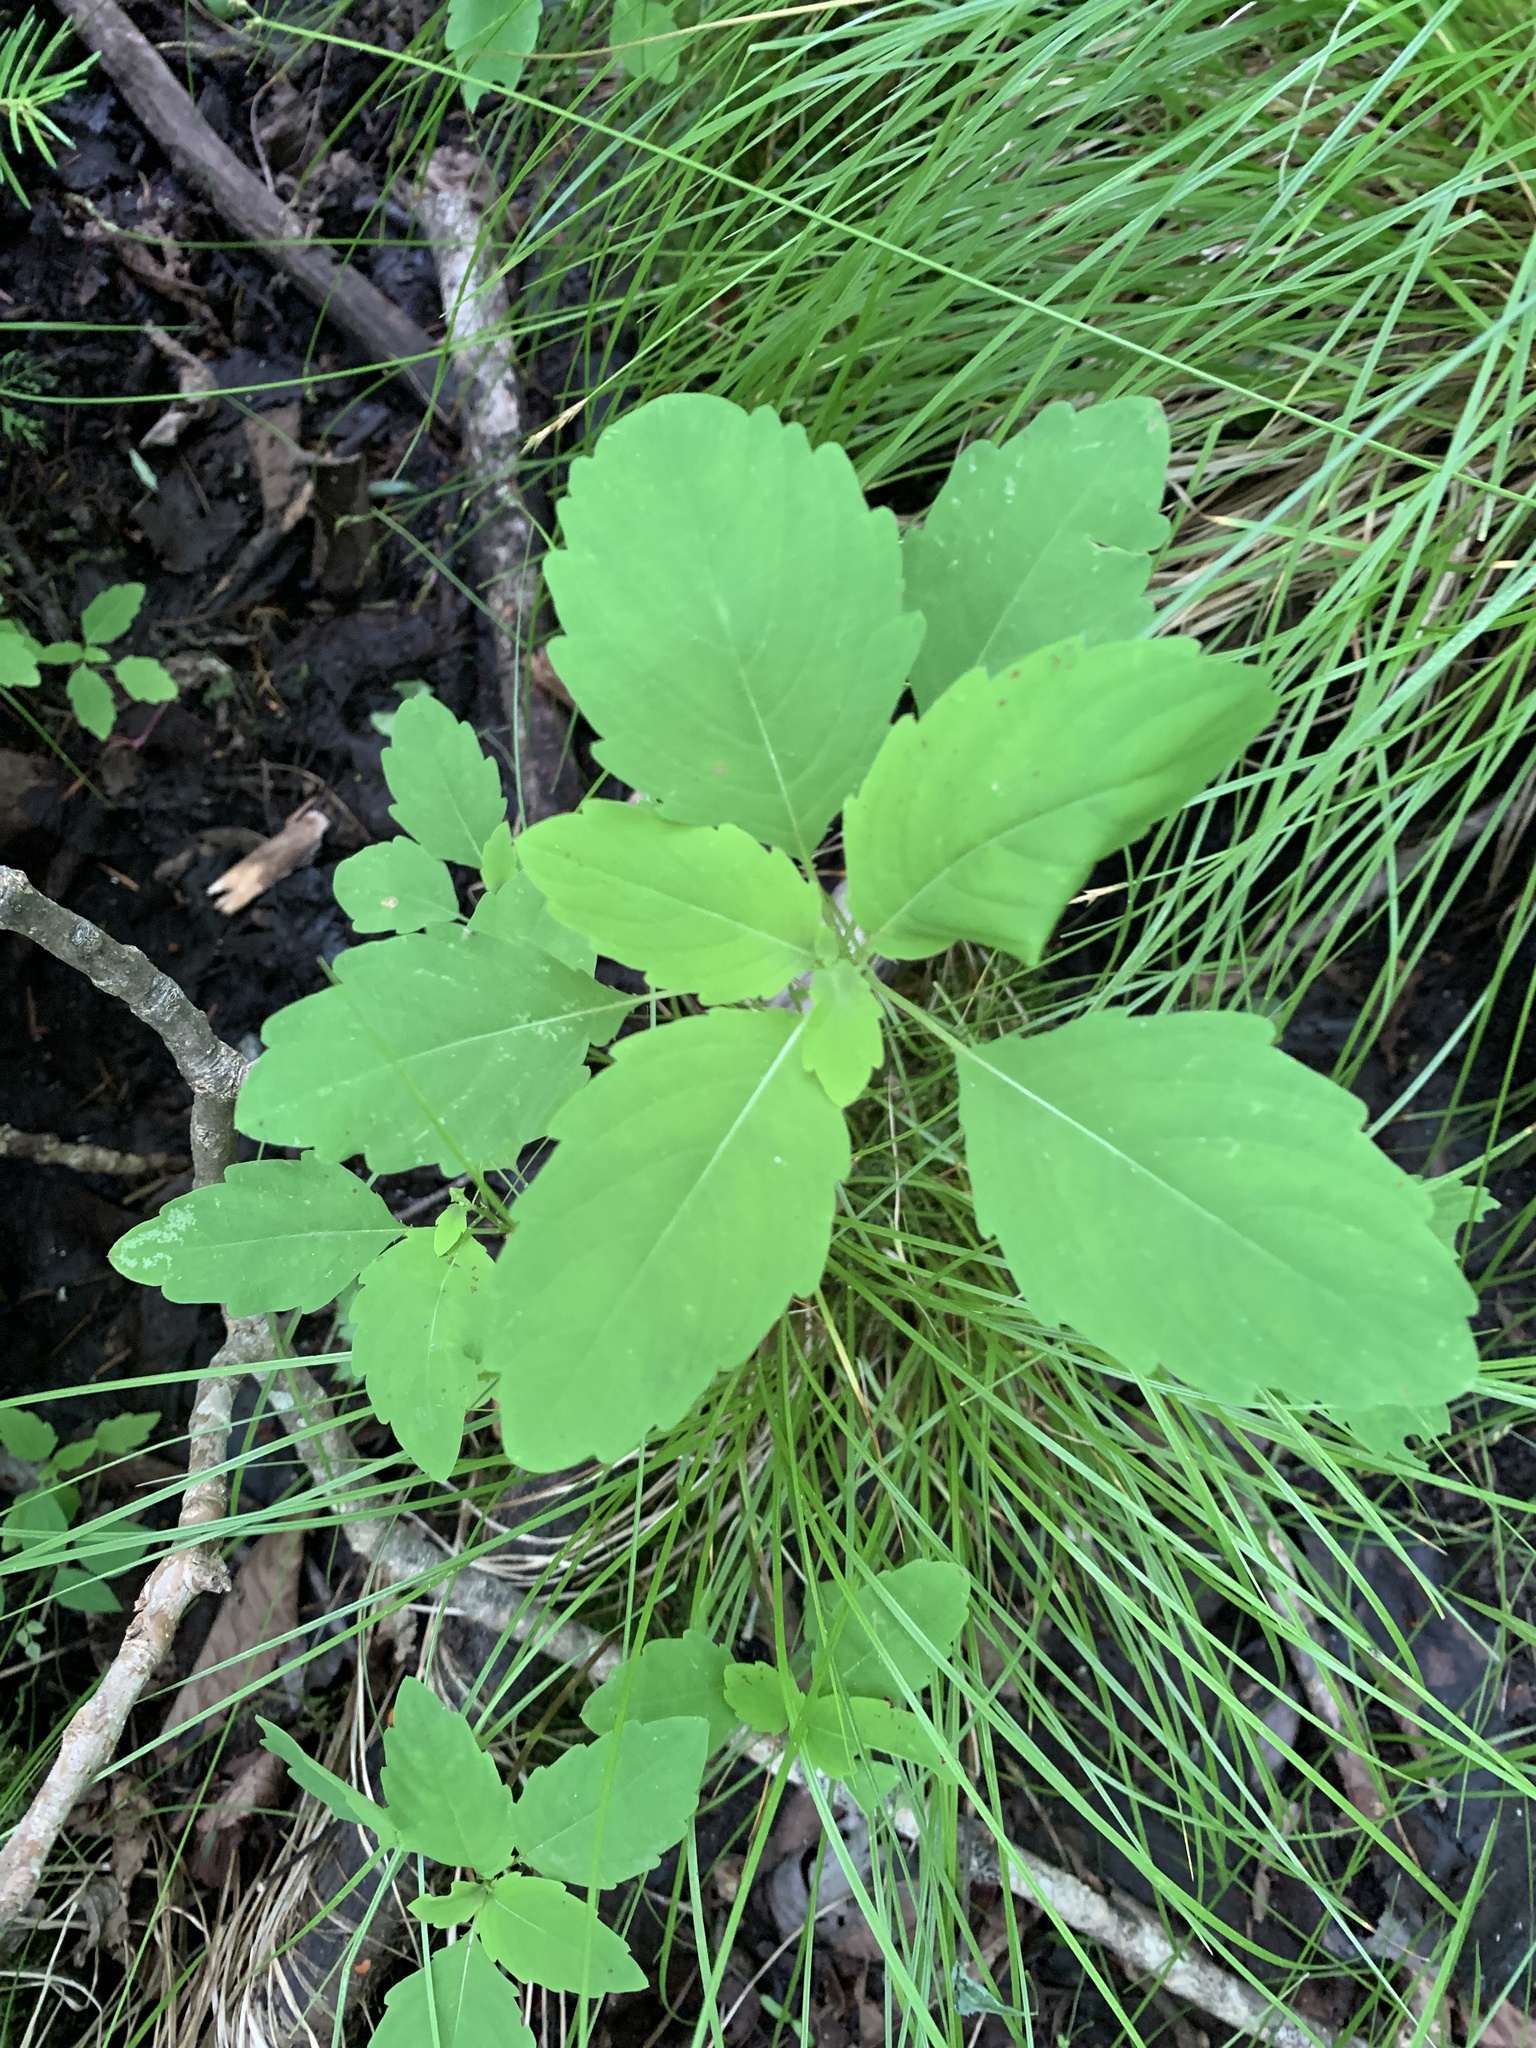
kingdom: Plantae
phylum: Tracheophyta
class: Magnoliopsida
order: Ericales
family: Balsaminaceae
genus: Impatiens
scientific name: Impatiens capensis
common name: Orange balsam
